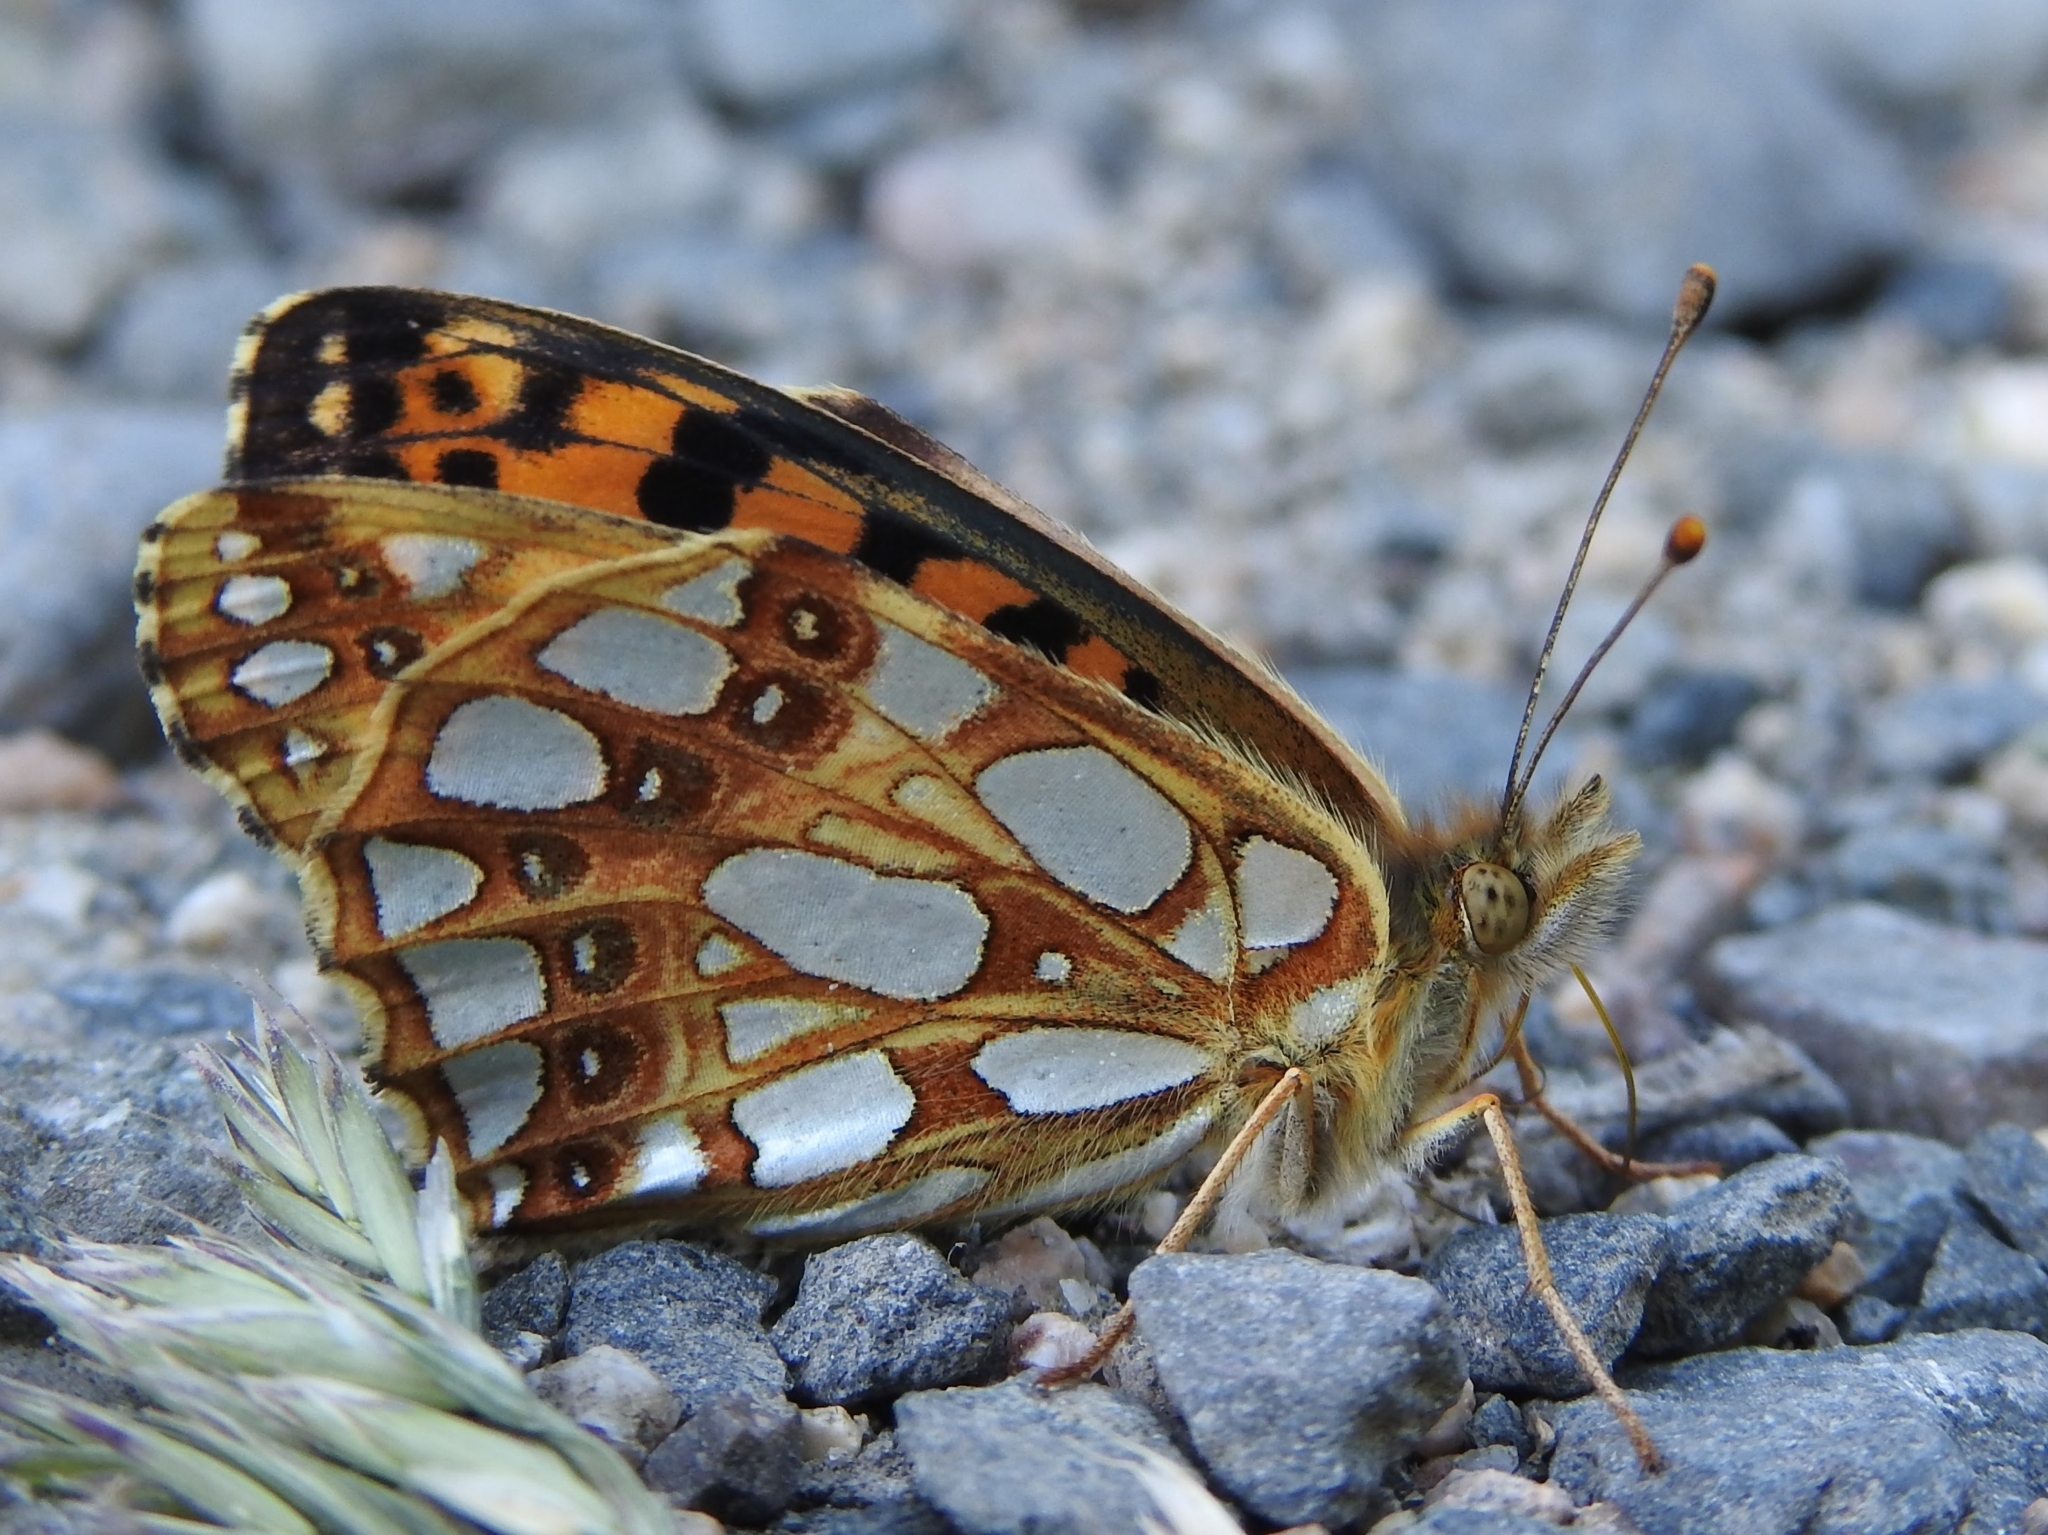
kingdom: Animalia
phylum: Arthropoda
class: Insecta
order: Lepidoptera
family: Nymphalidae
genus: Issoria
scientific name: Issoria lathonia
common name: Queen of spain fritillary
